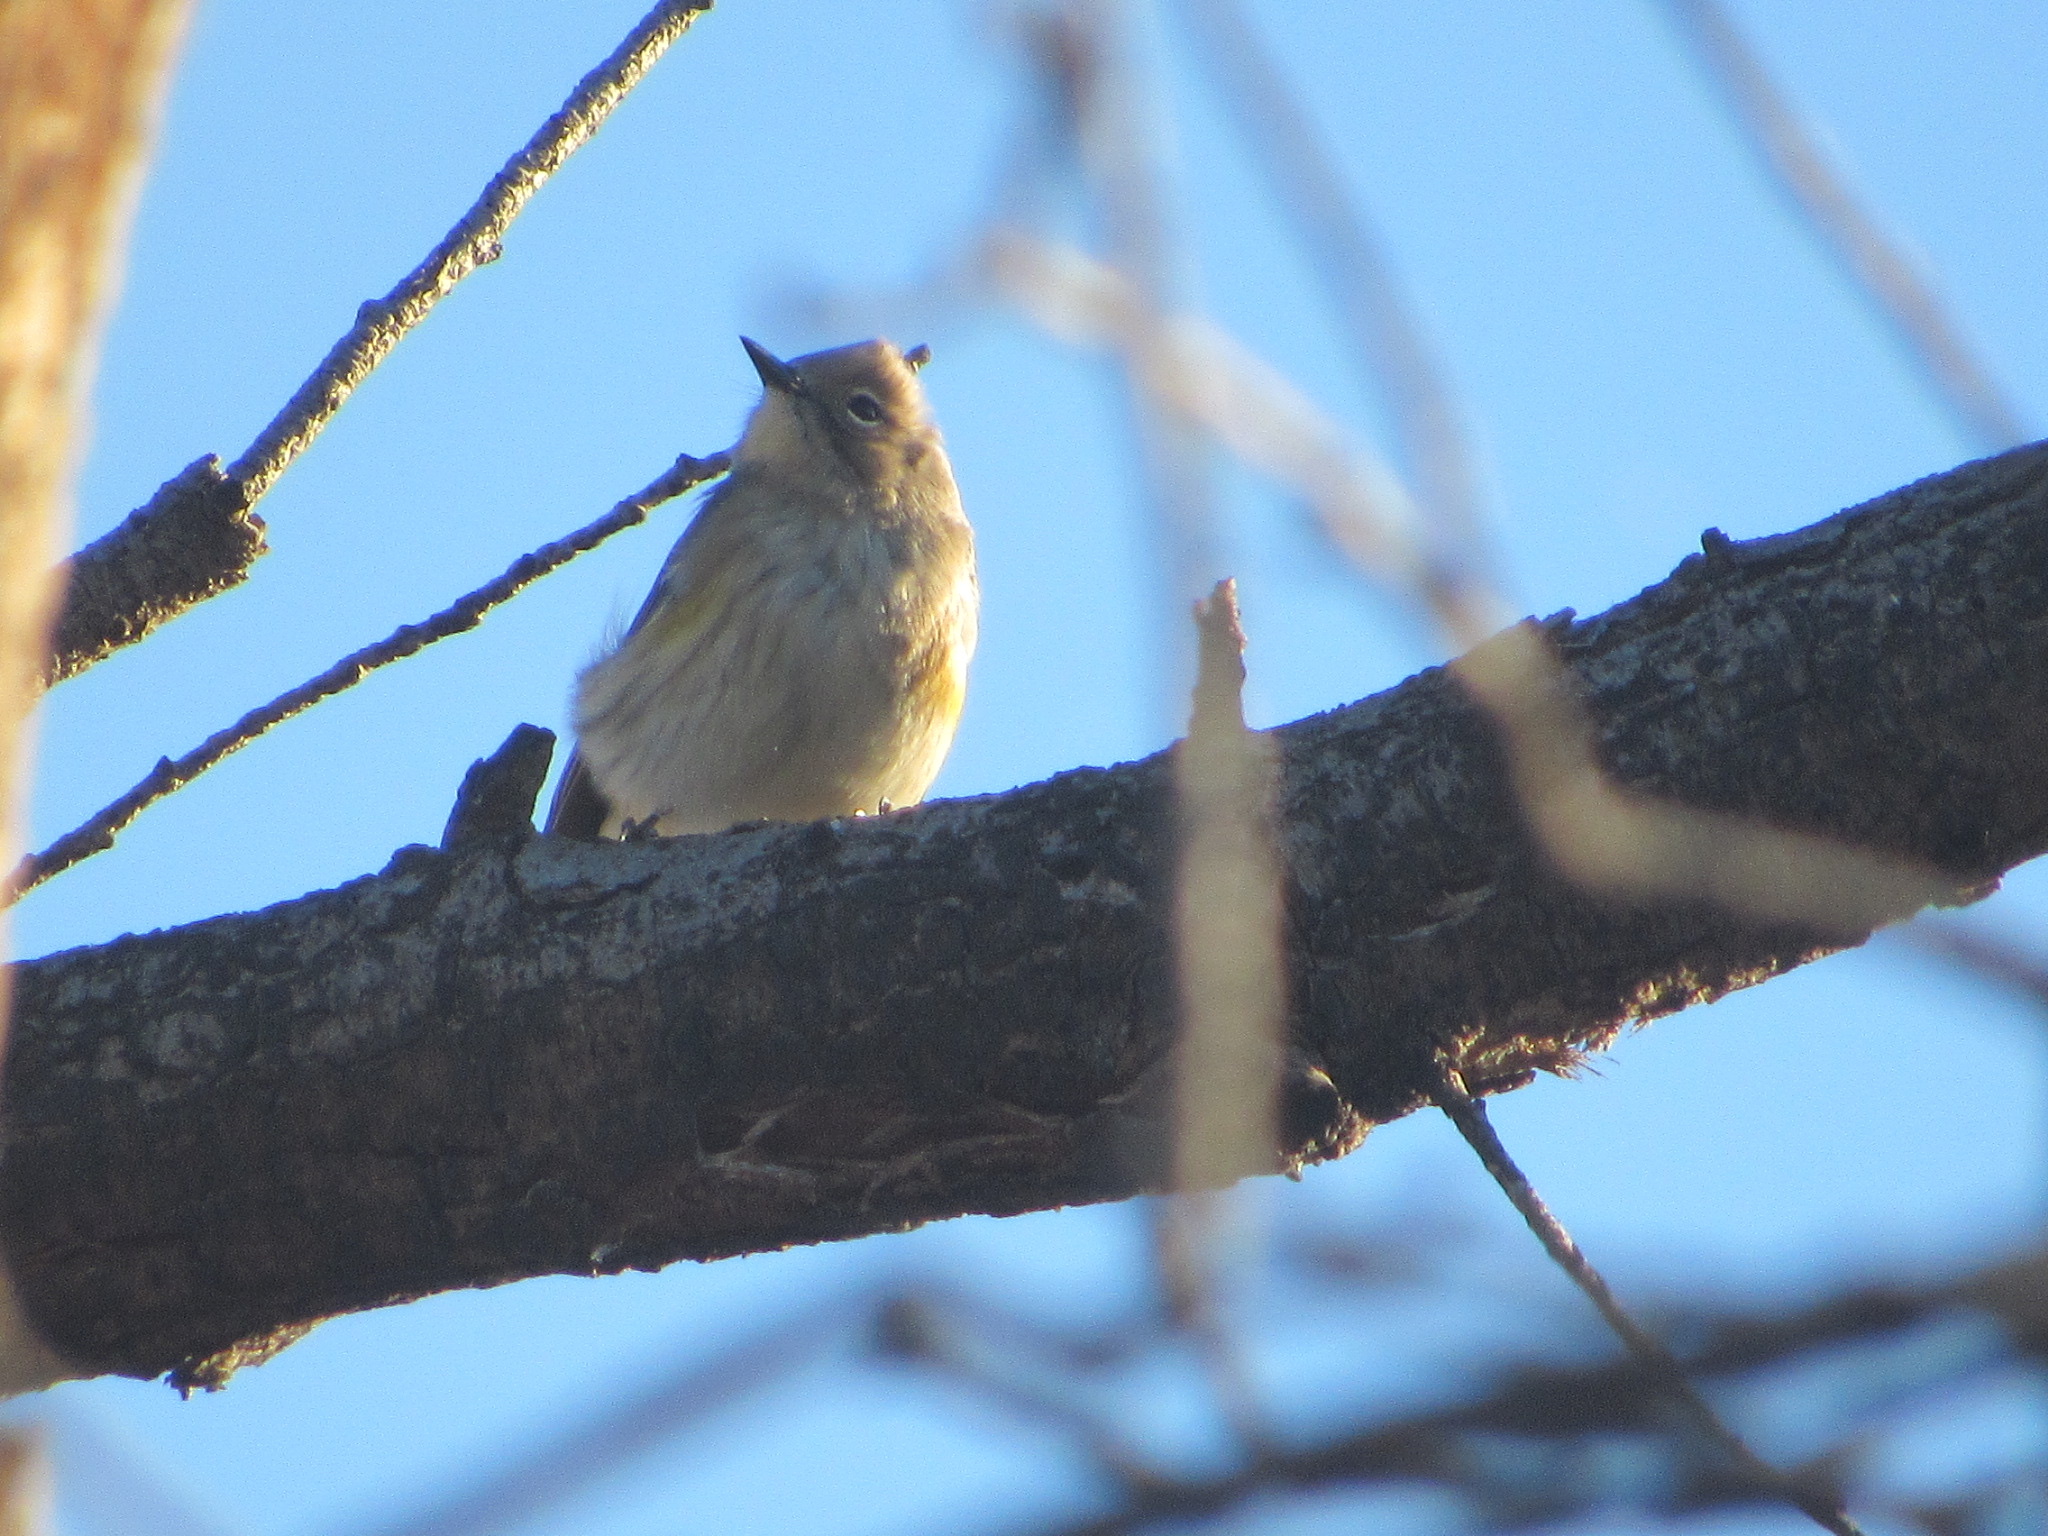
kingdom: Animalia
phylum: Chordata
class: Aves
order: Passeriformes
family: Parulidae
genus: Setophaga
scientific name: Setophaga coronata
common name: Myrtle warbler
